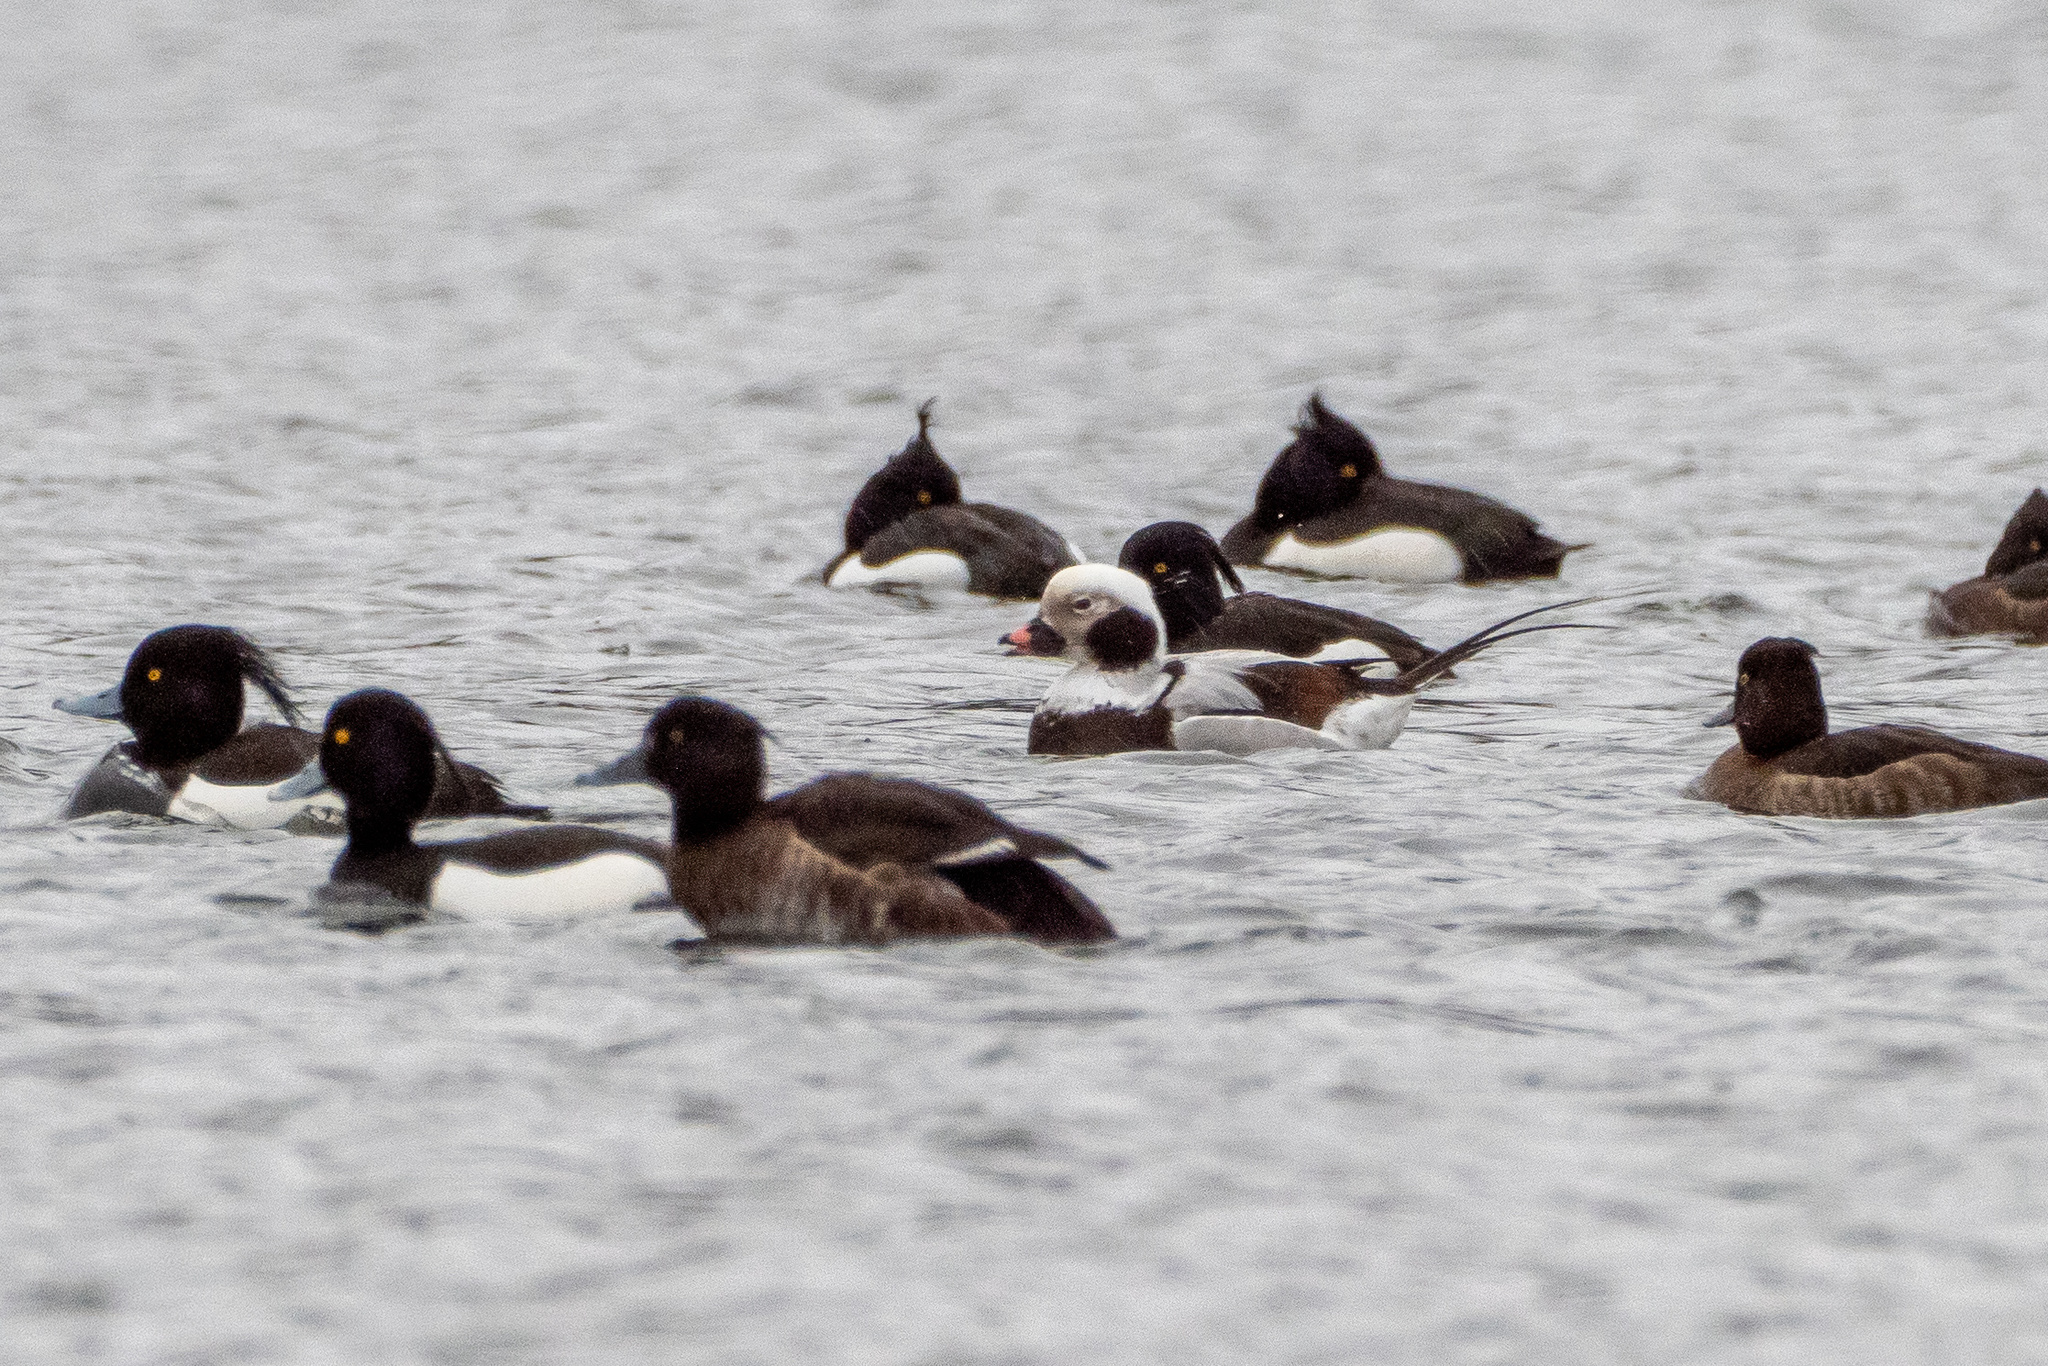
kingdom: Animalia
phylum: Chordata
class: Aves
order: Anseriformes
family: Anatidae
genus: Clangula
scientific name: Clangula hyemalis
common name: Long-tailed duck
